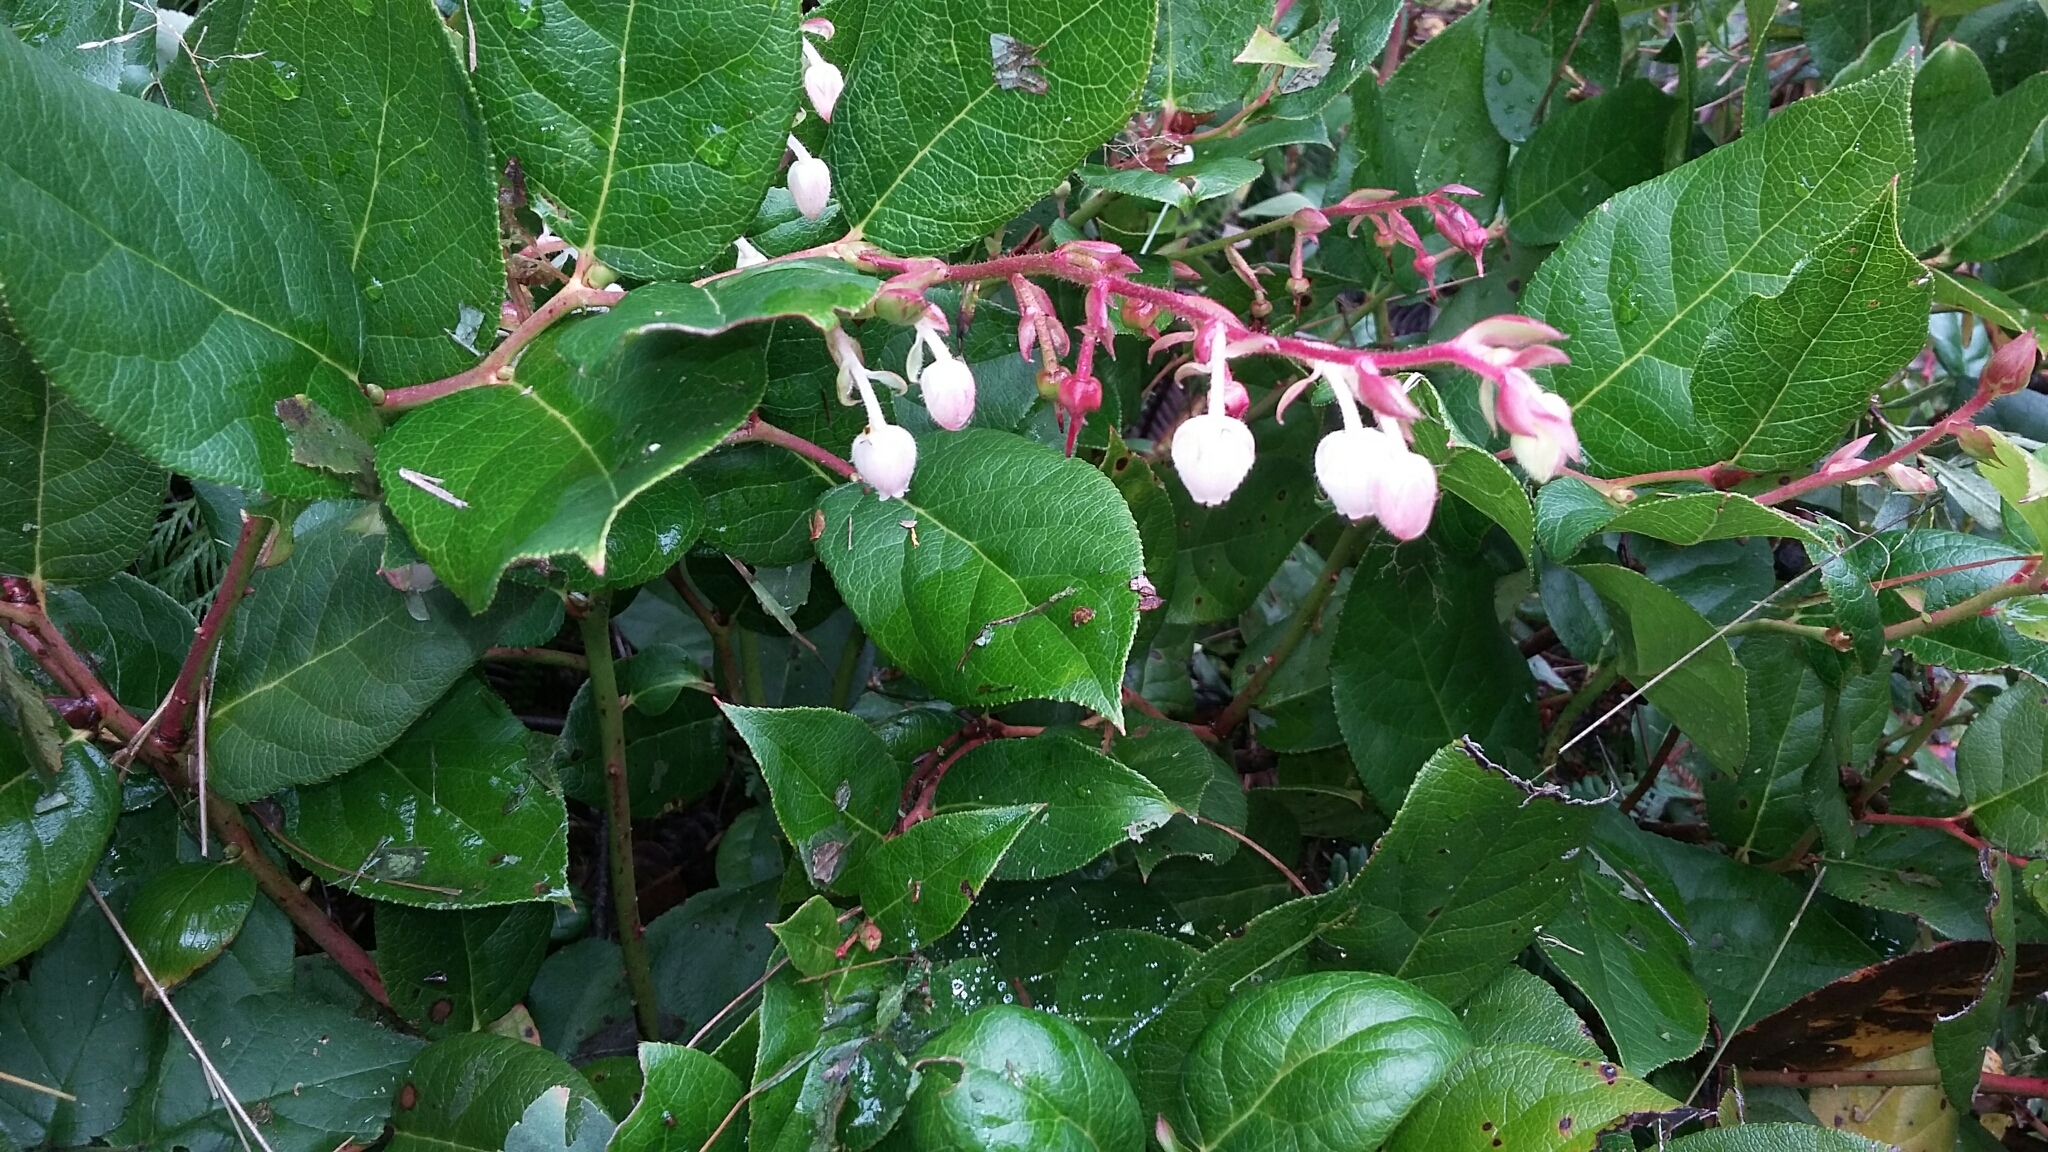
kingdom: Plantae
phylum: Tracheophyta
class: Magnoliopsida
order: Ericales
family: Ericaceae
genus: Gaultheria
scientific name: Gaultheria shallon
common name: Shallon
